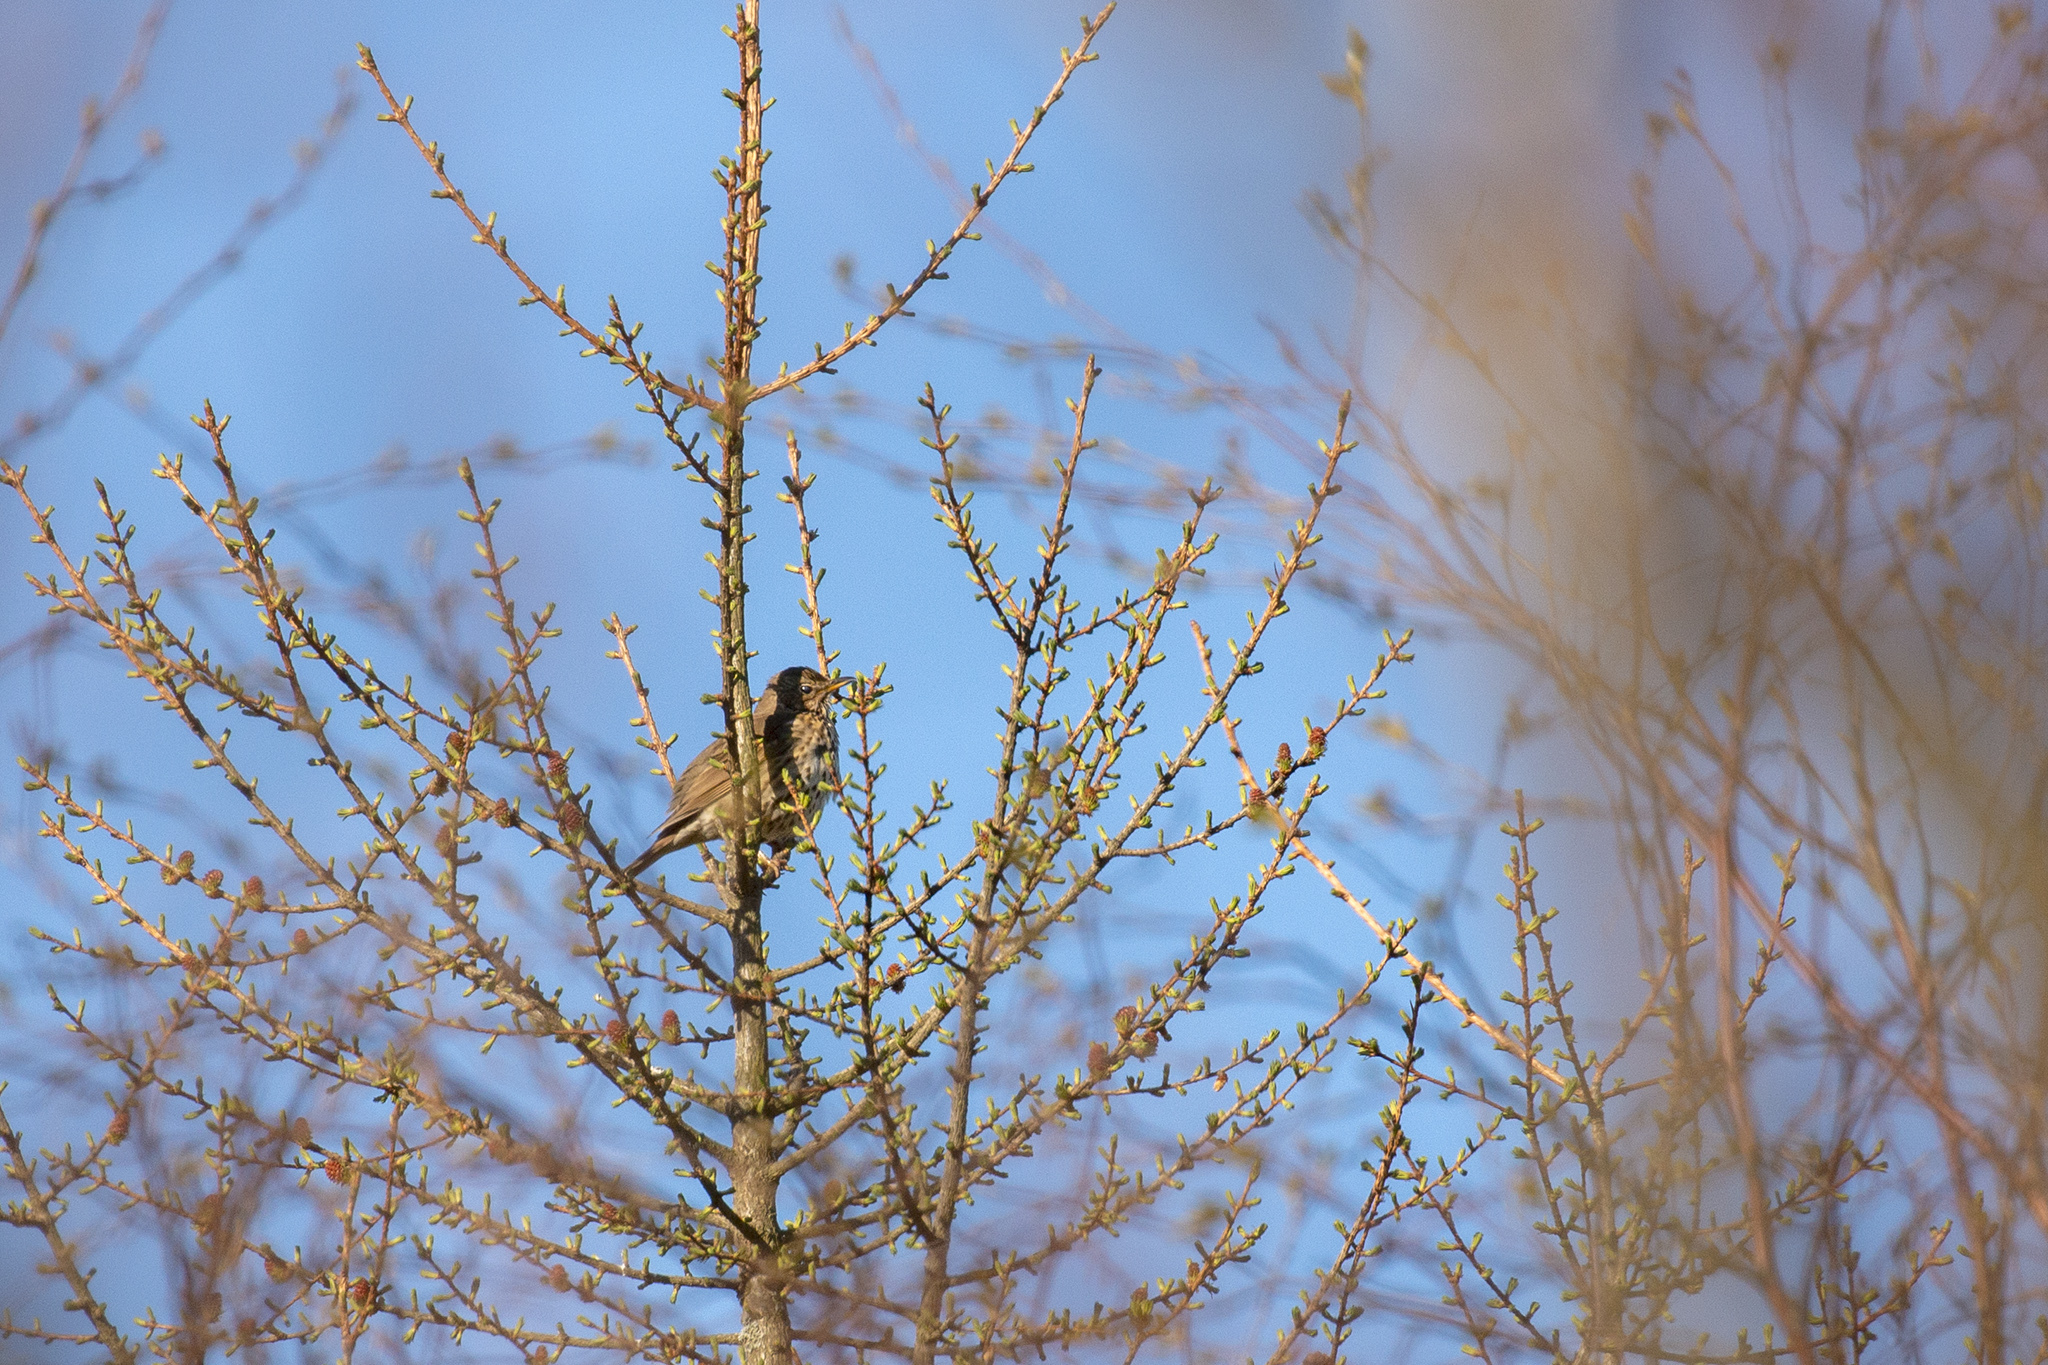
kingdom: Animalia
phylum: Chordata
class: Aves
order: Passeriformes
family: Turdidae
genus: Turdus
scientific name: Turdus philomelos
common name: Song thrush
